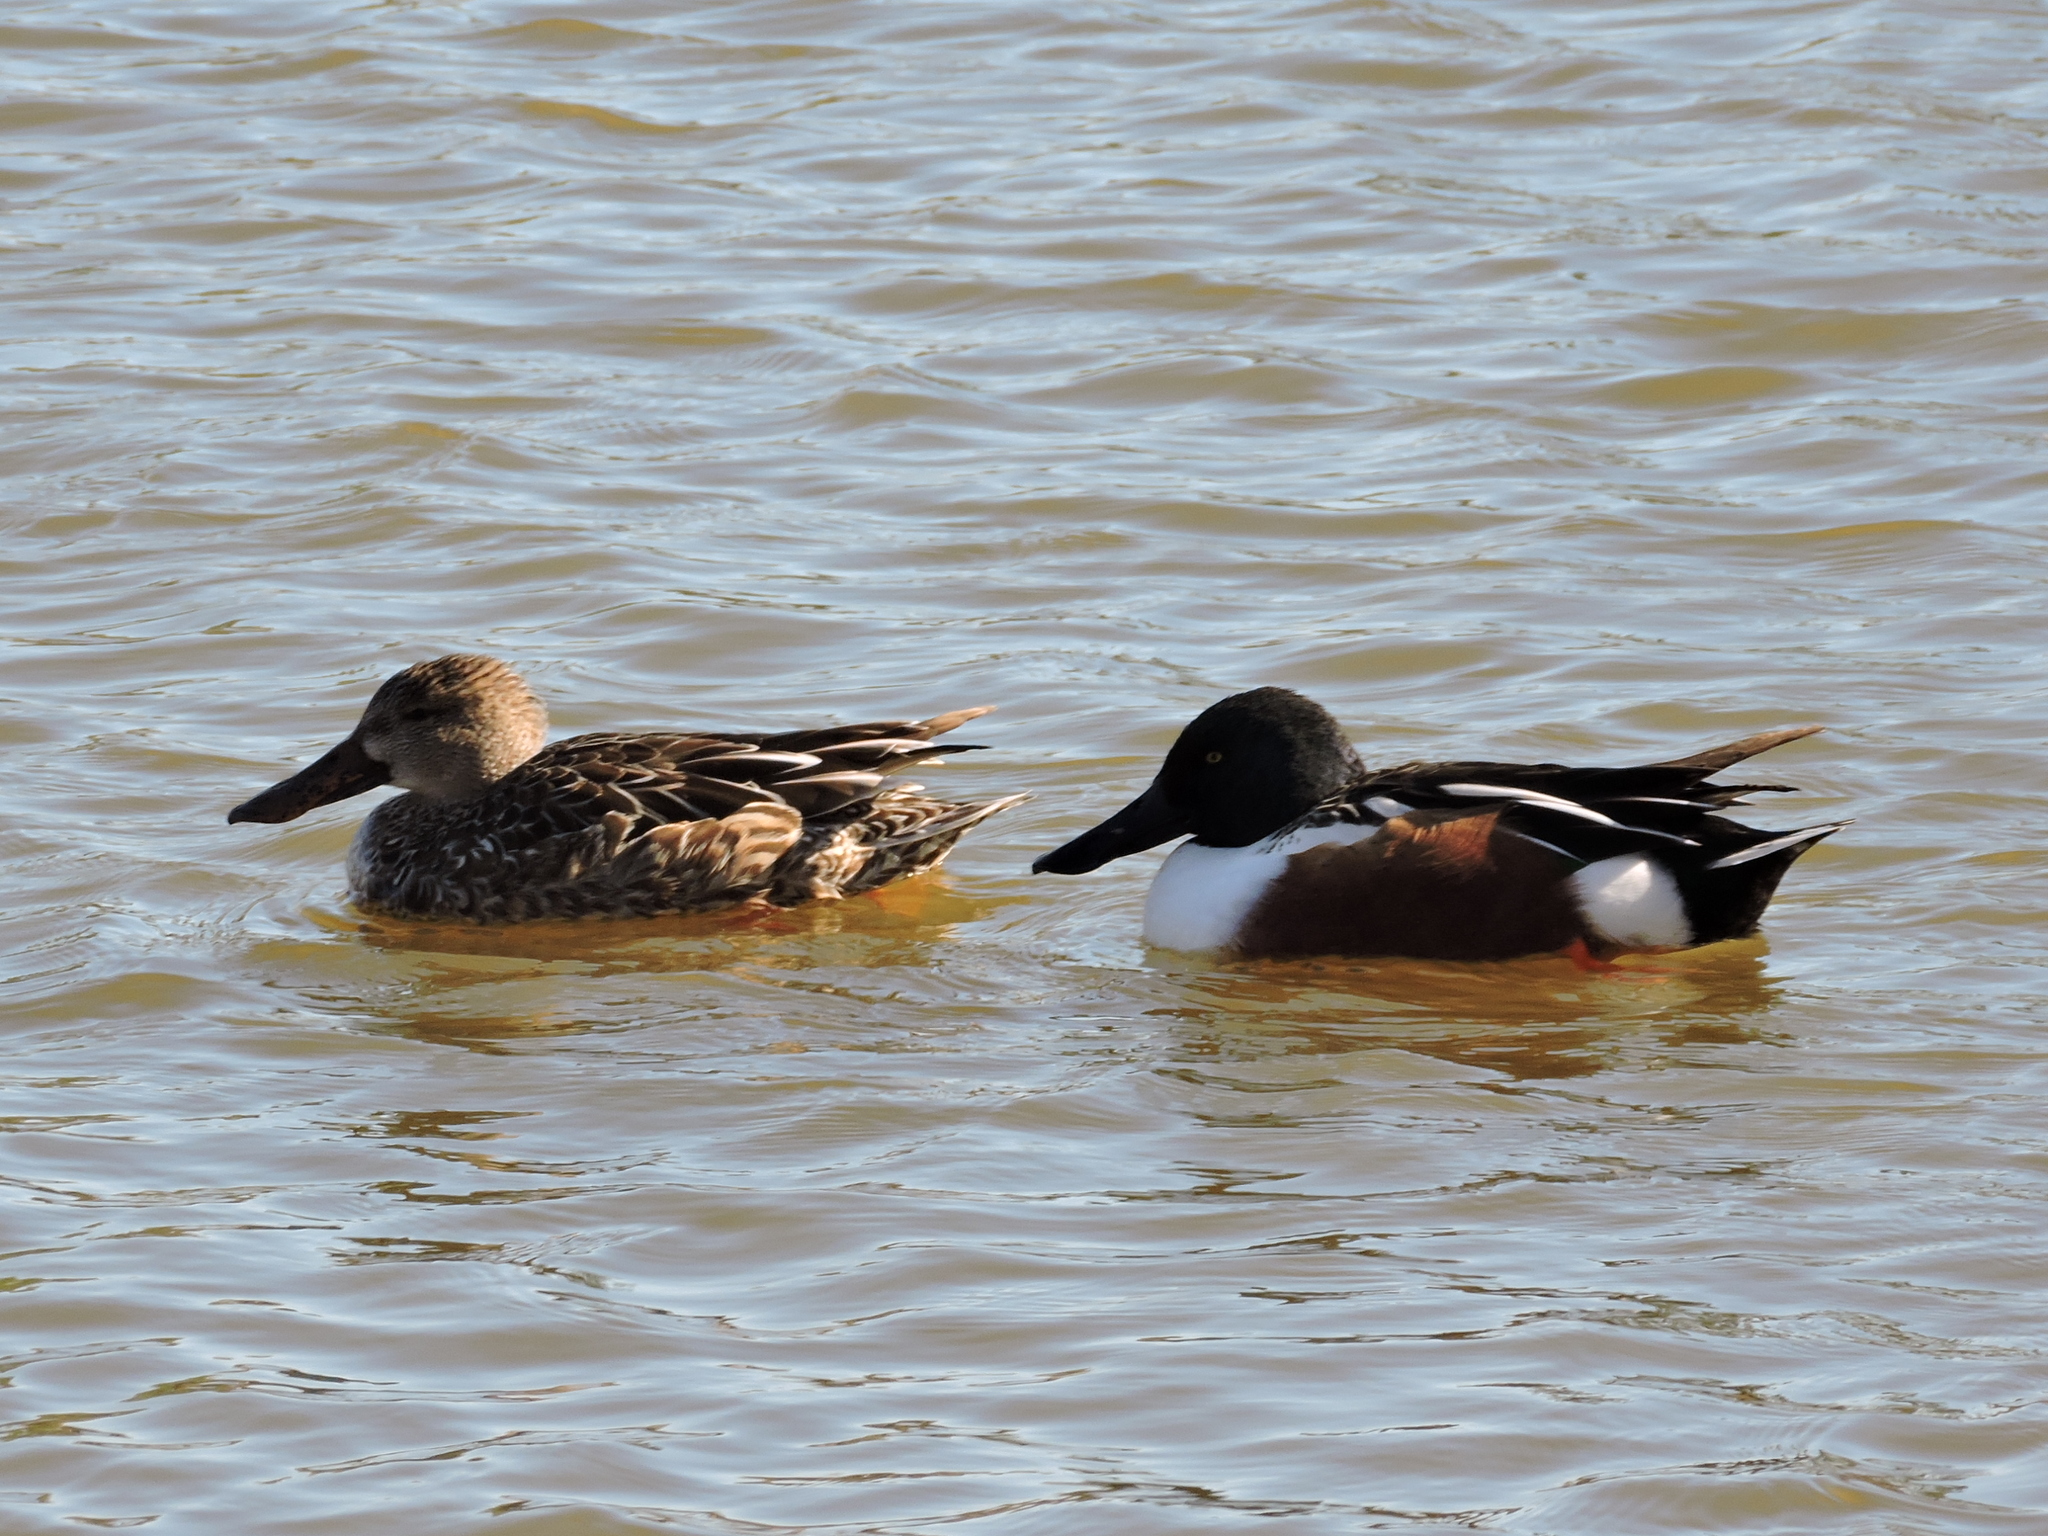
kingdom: Animalia
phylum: Chordata
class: Aves
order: Anseriformes
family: Anatidae
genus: Spatula
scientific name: Spatula clypeata
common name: Northern shoveler
